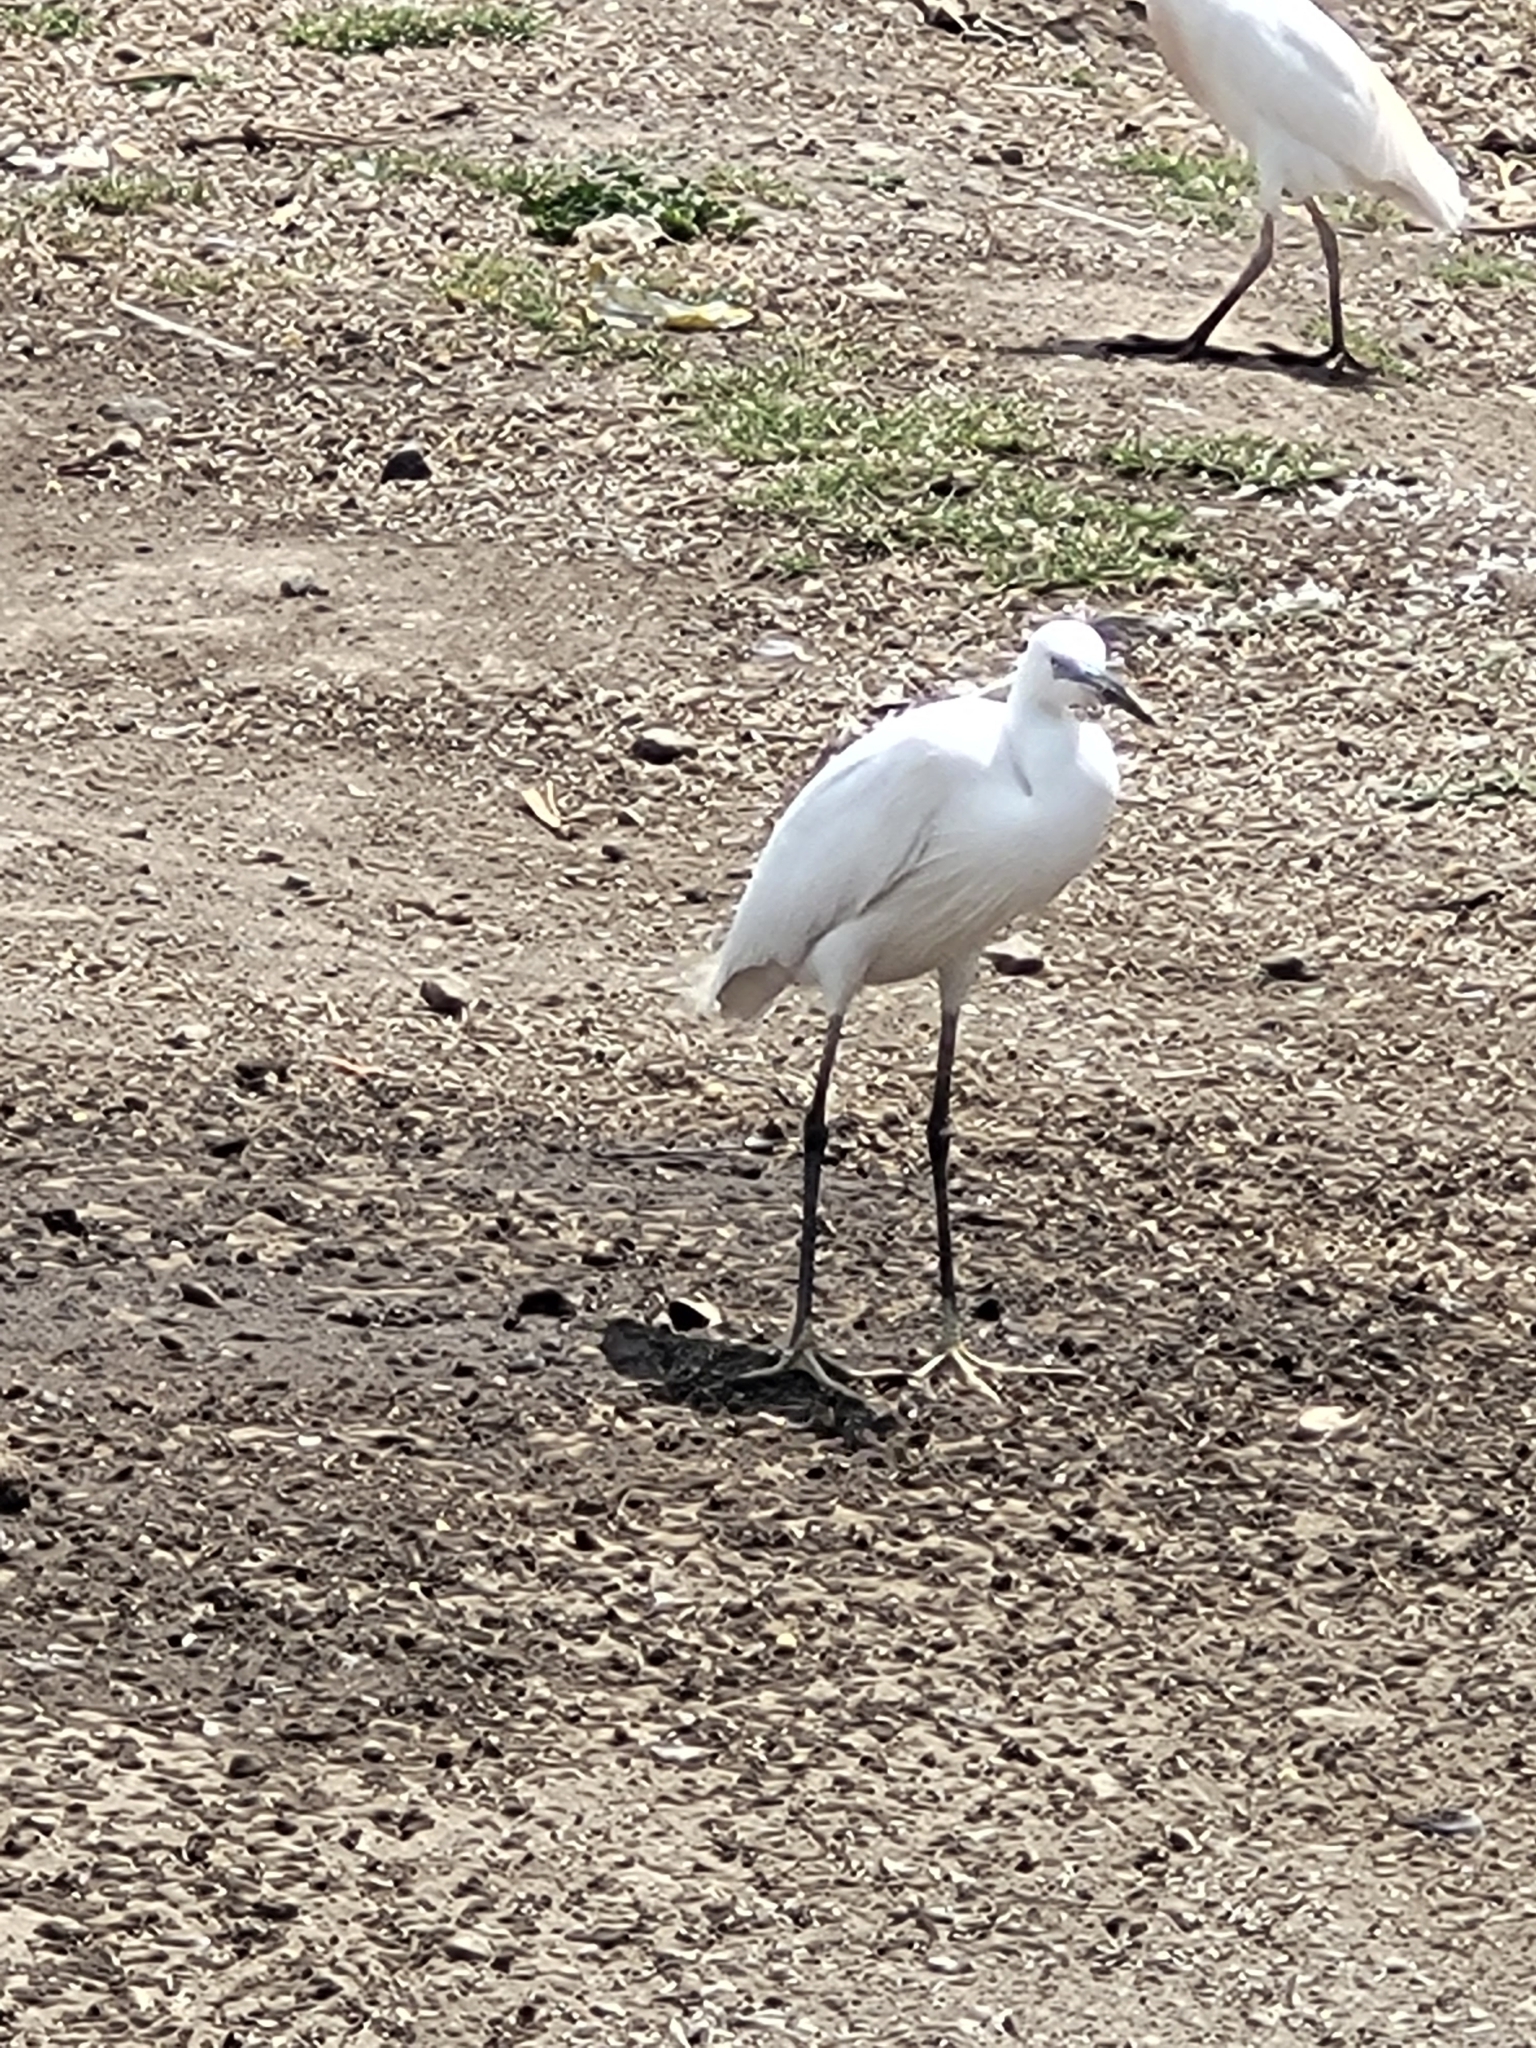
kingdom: Animalia
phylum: Chordata
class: Aves
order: Pelecaniformes
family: Ardeidae
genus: Egretta
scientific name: Egretta garzetta
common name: Little egret
